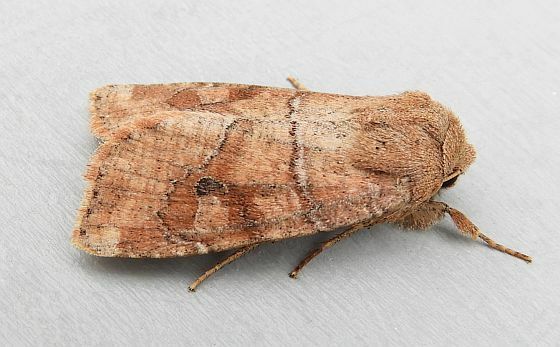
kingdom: Animalia
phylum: Arthropoda
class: Insecta
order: Lepidoptera
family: Noctuidae
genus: Crocigrapha
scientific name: Crocigrapha normani
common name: Norman's quaker
